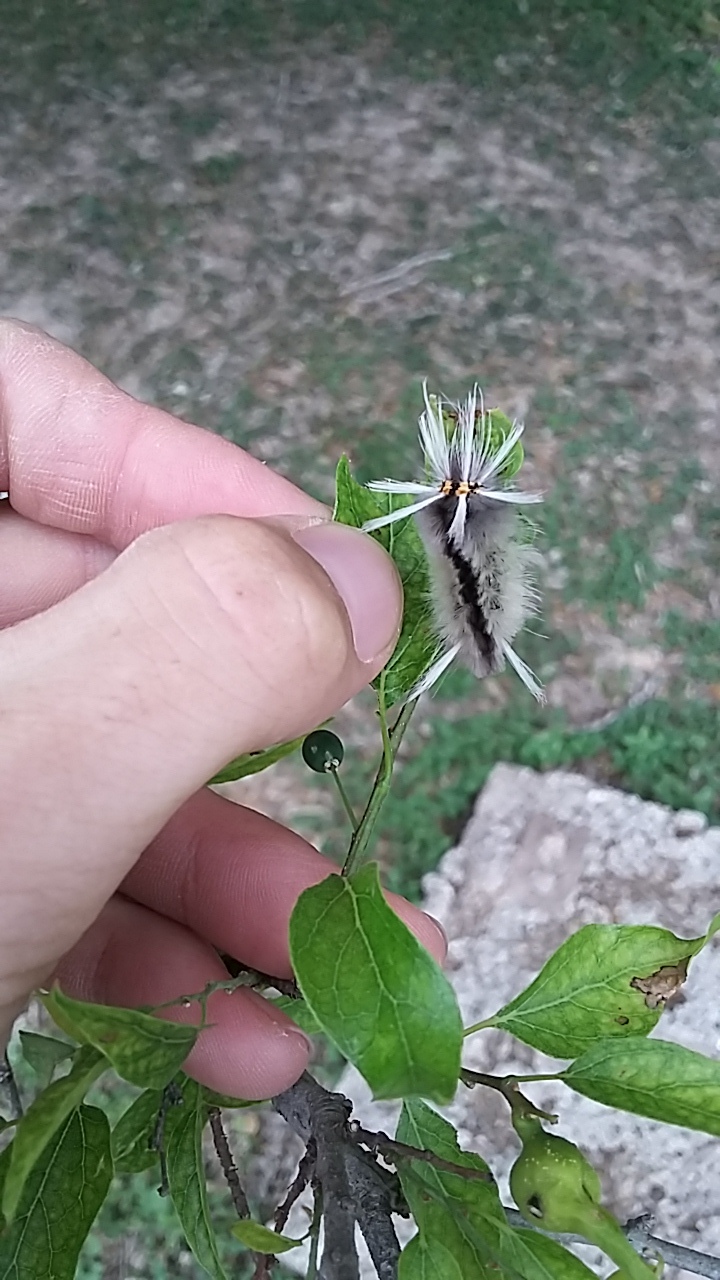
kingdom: Animalia
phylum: Arthropoda
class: Insecta
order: Lepidoptera
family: Erebidae
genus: Halysidota
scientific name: Halysidota schausi
